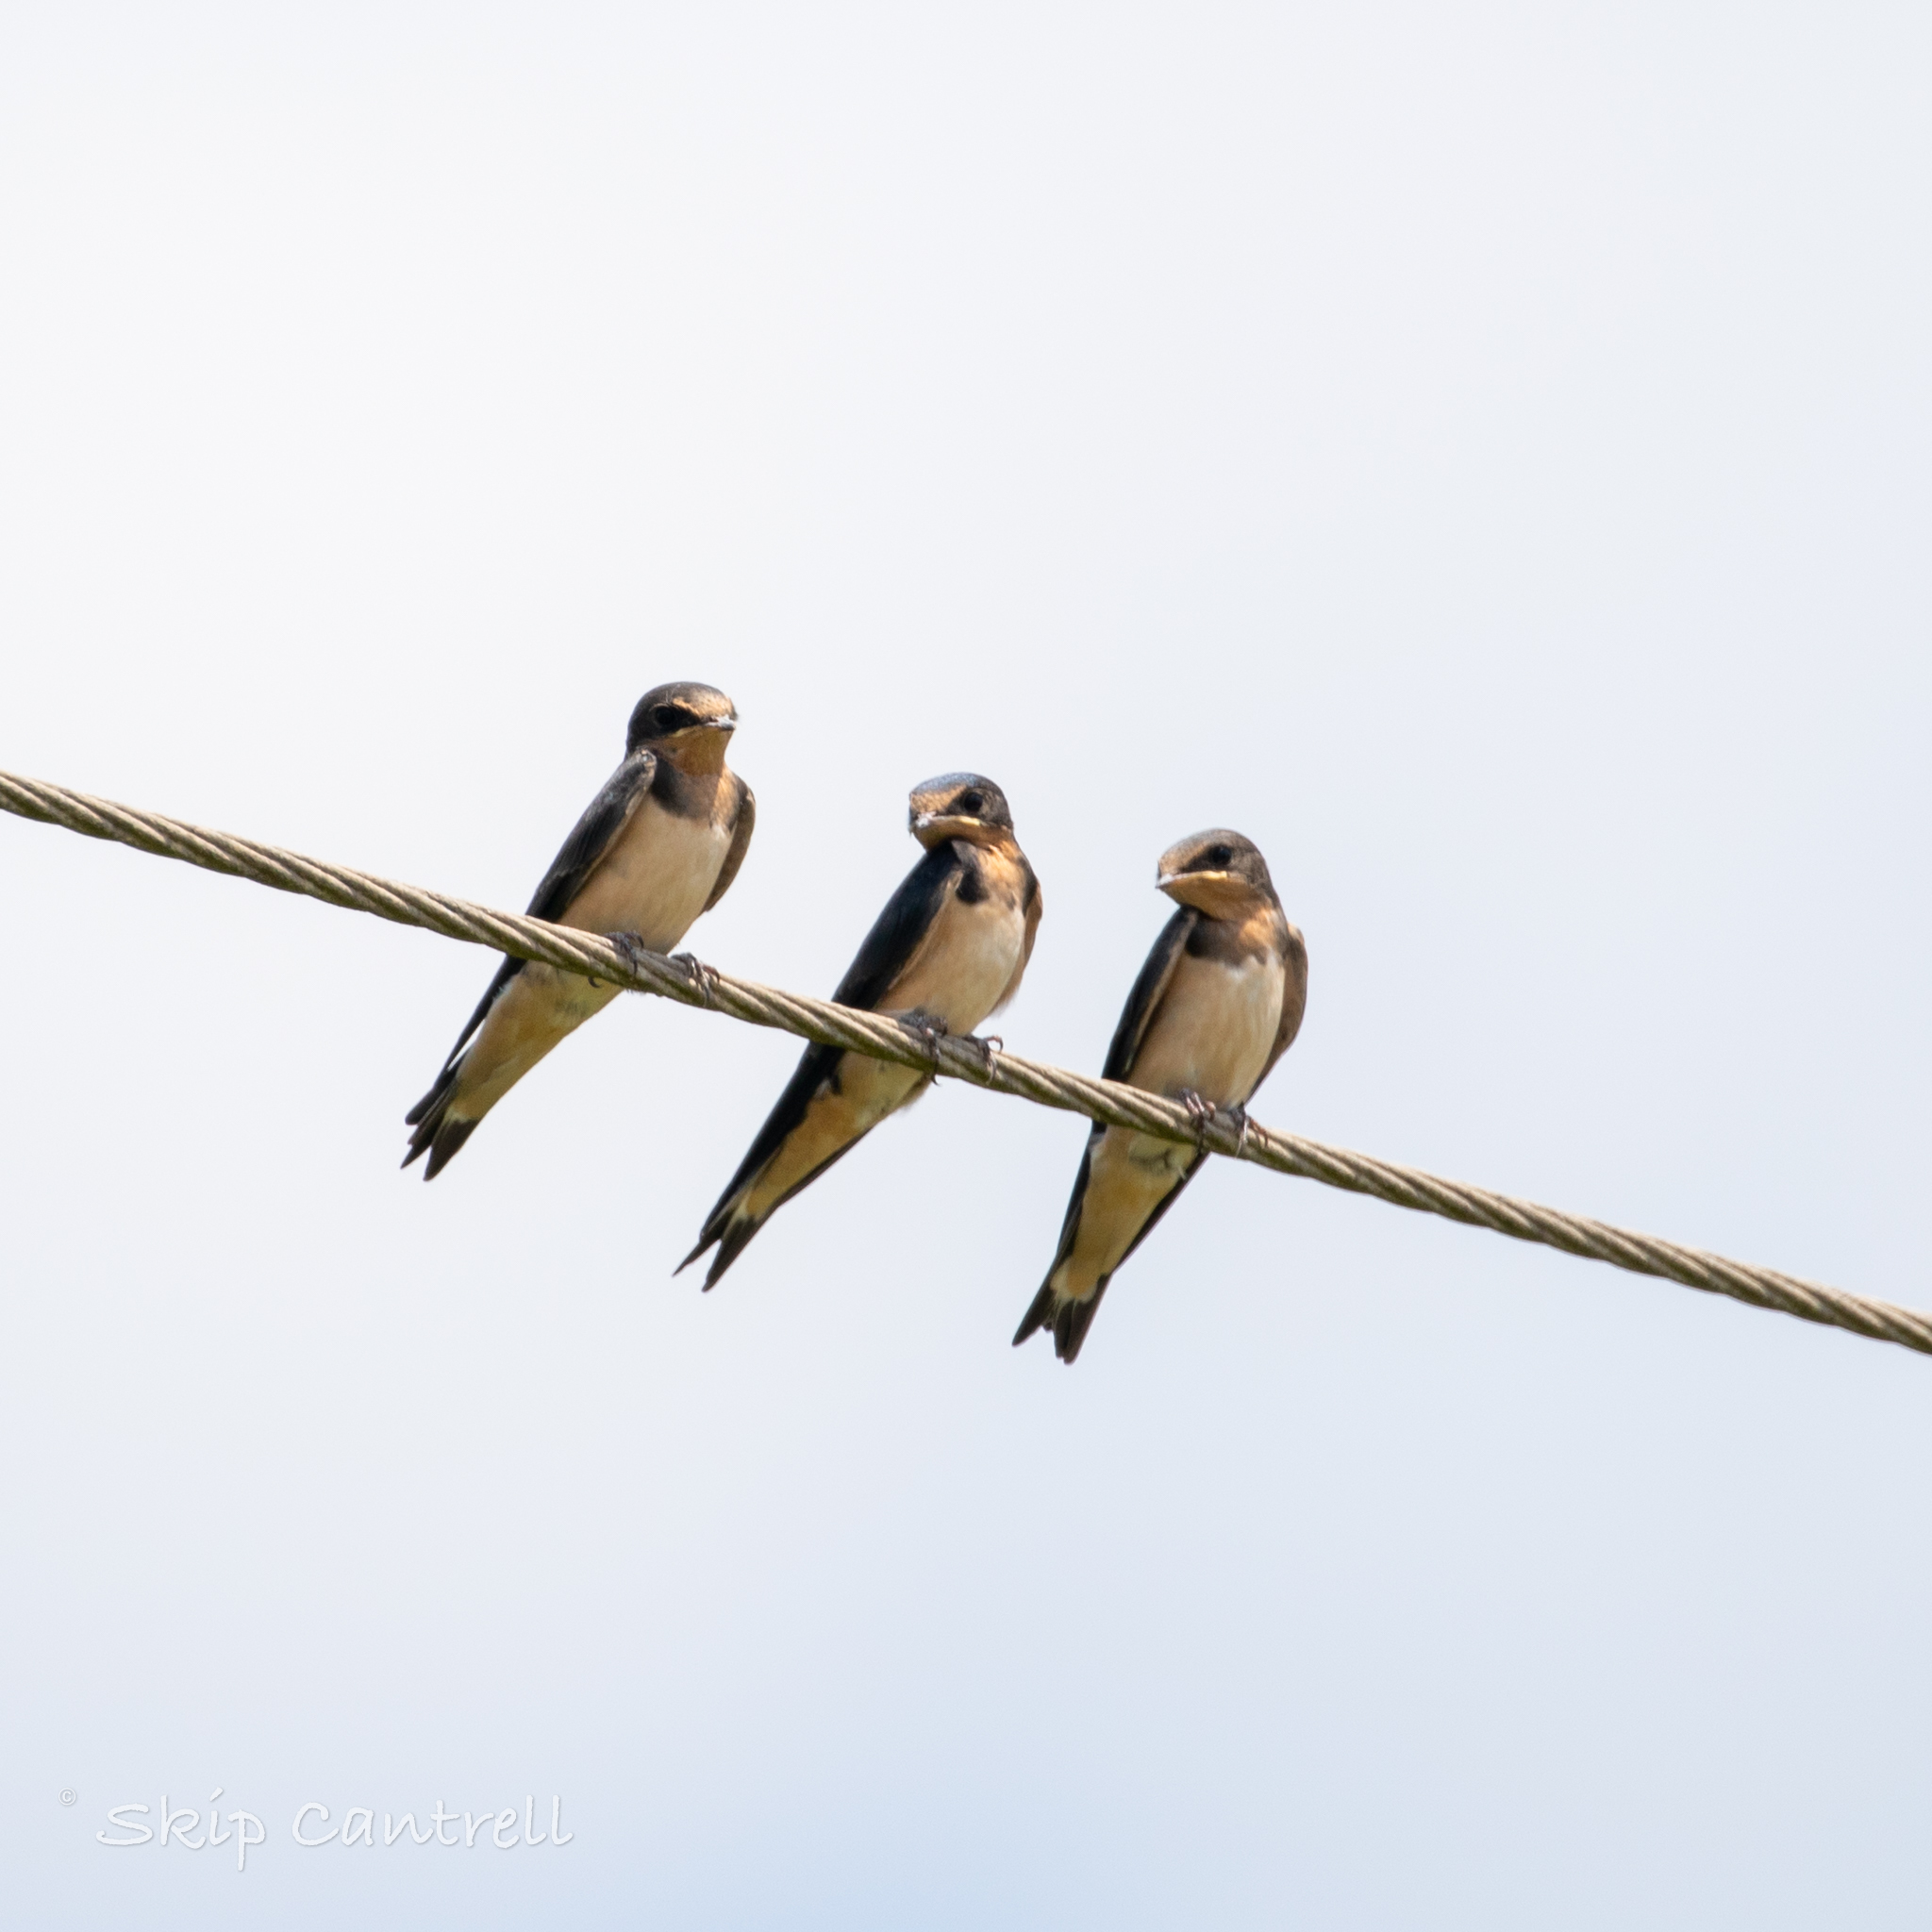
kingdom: Animalia
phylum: Chordata
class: Aves
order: Passeriformes
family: Hirundinidae
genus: Hirundo
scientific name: Hirundo rustica
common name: Barn swallow
